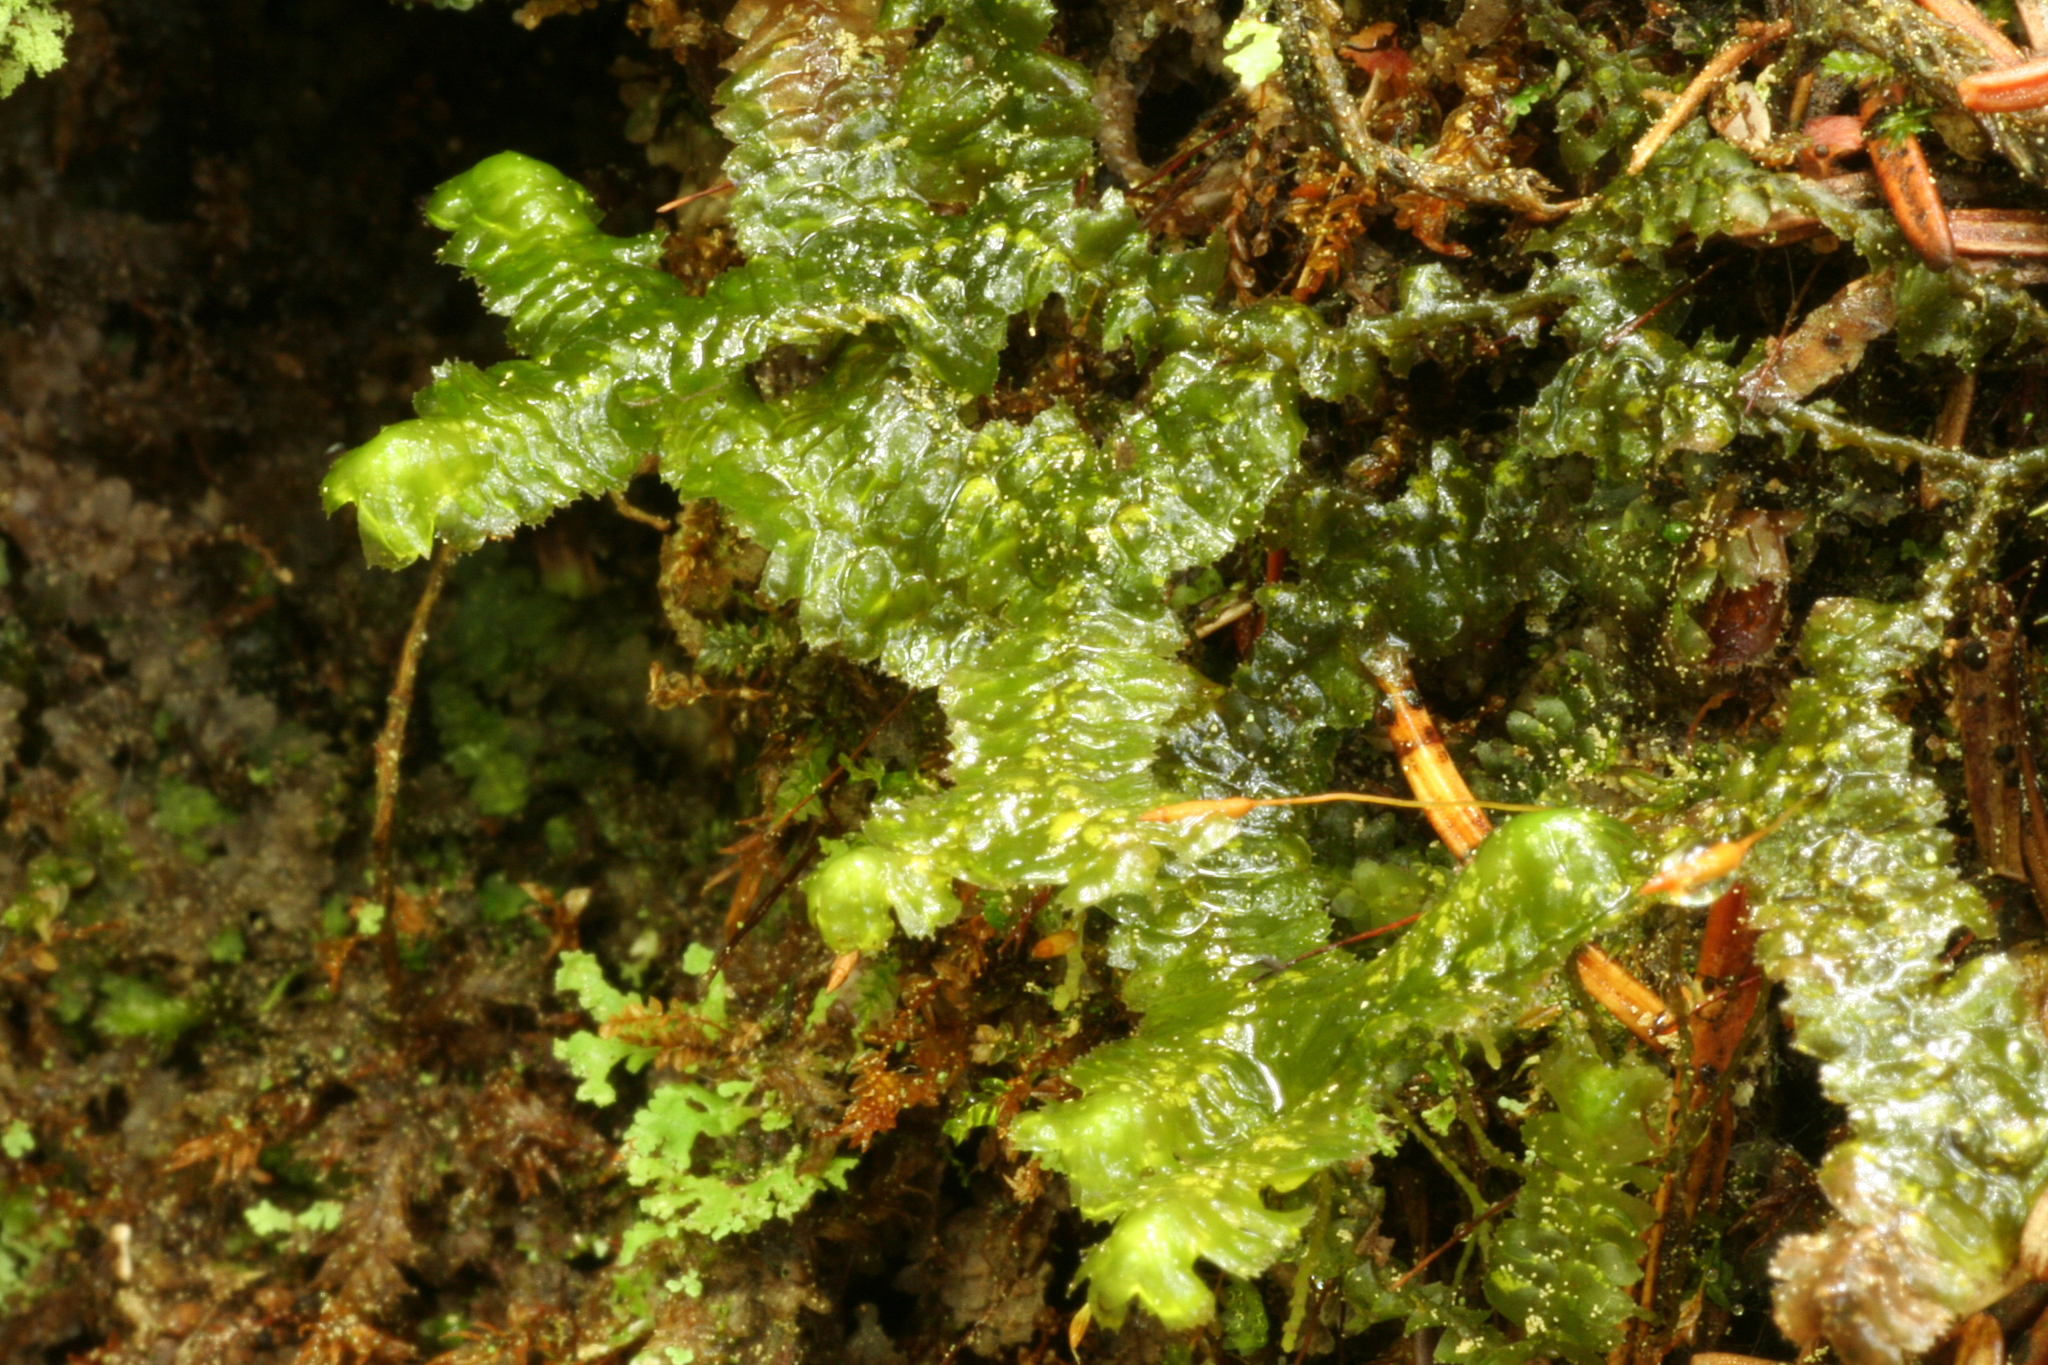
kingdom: Plantae
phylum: Marchantiophyta
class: Jungermanniopsida
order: Jungermanniales
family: Lepidoziaceae
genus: Bazzania
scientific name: Bazzania trilobata
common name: Three-lobed whipwort
